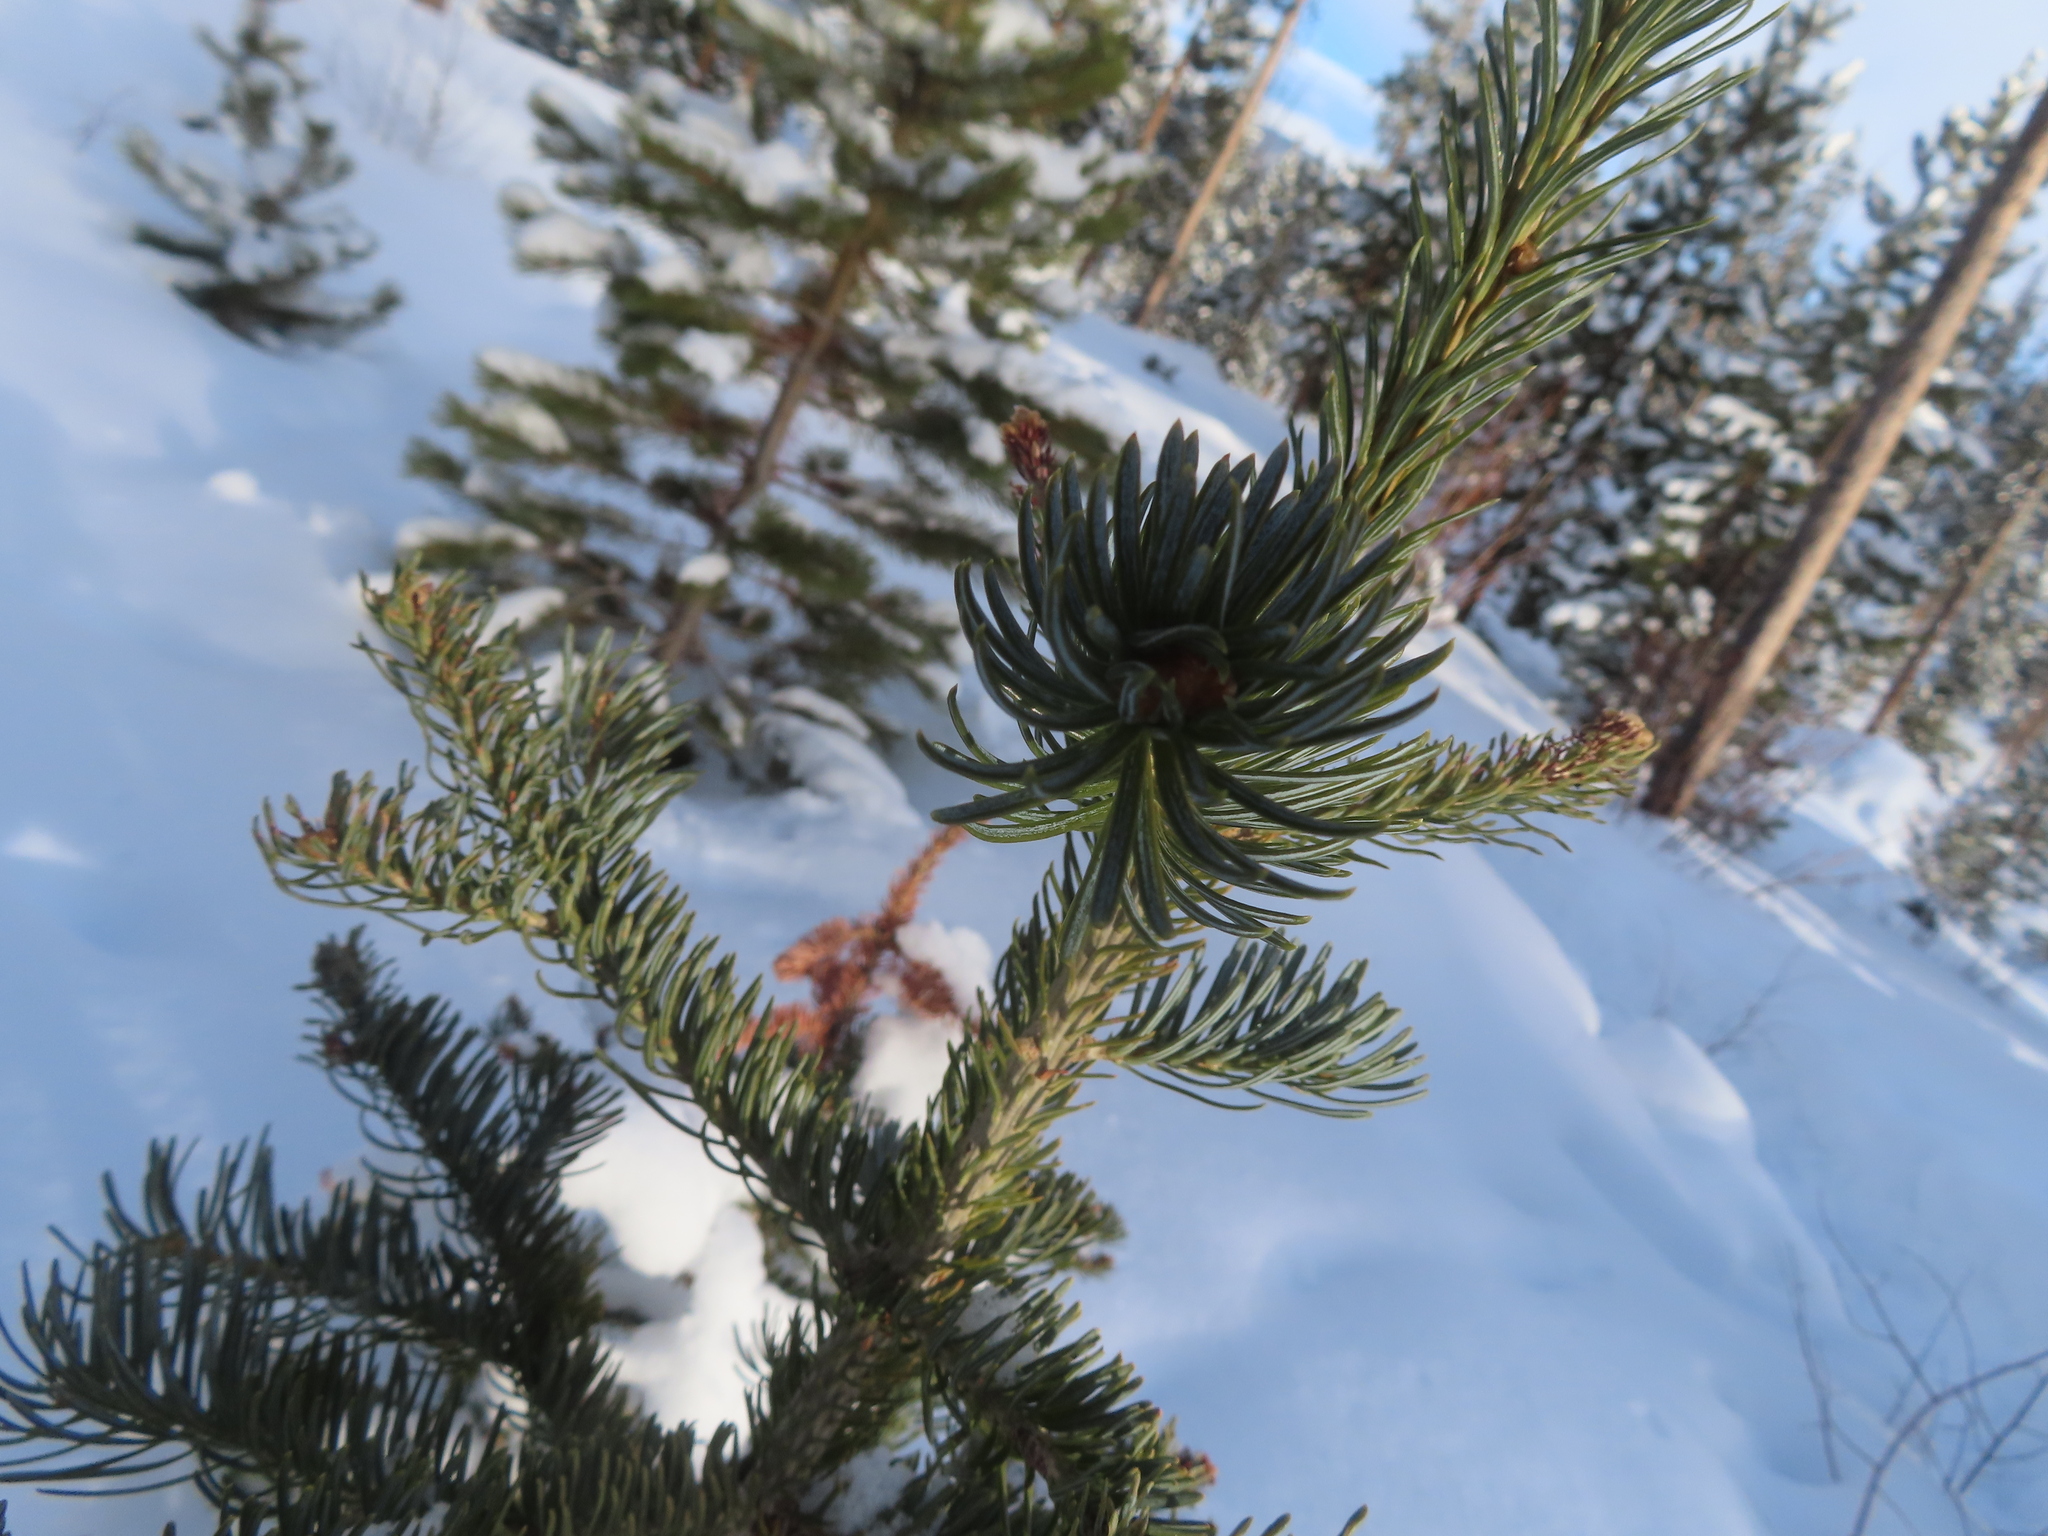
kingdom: Plantae
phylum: Tracheophyta
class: Pinopsida
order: Pinales
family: Pinaceae
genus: Abies
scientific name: Abies lasiocarpa
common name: Subalpine fir
